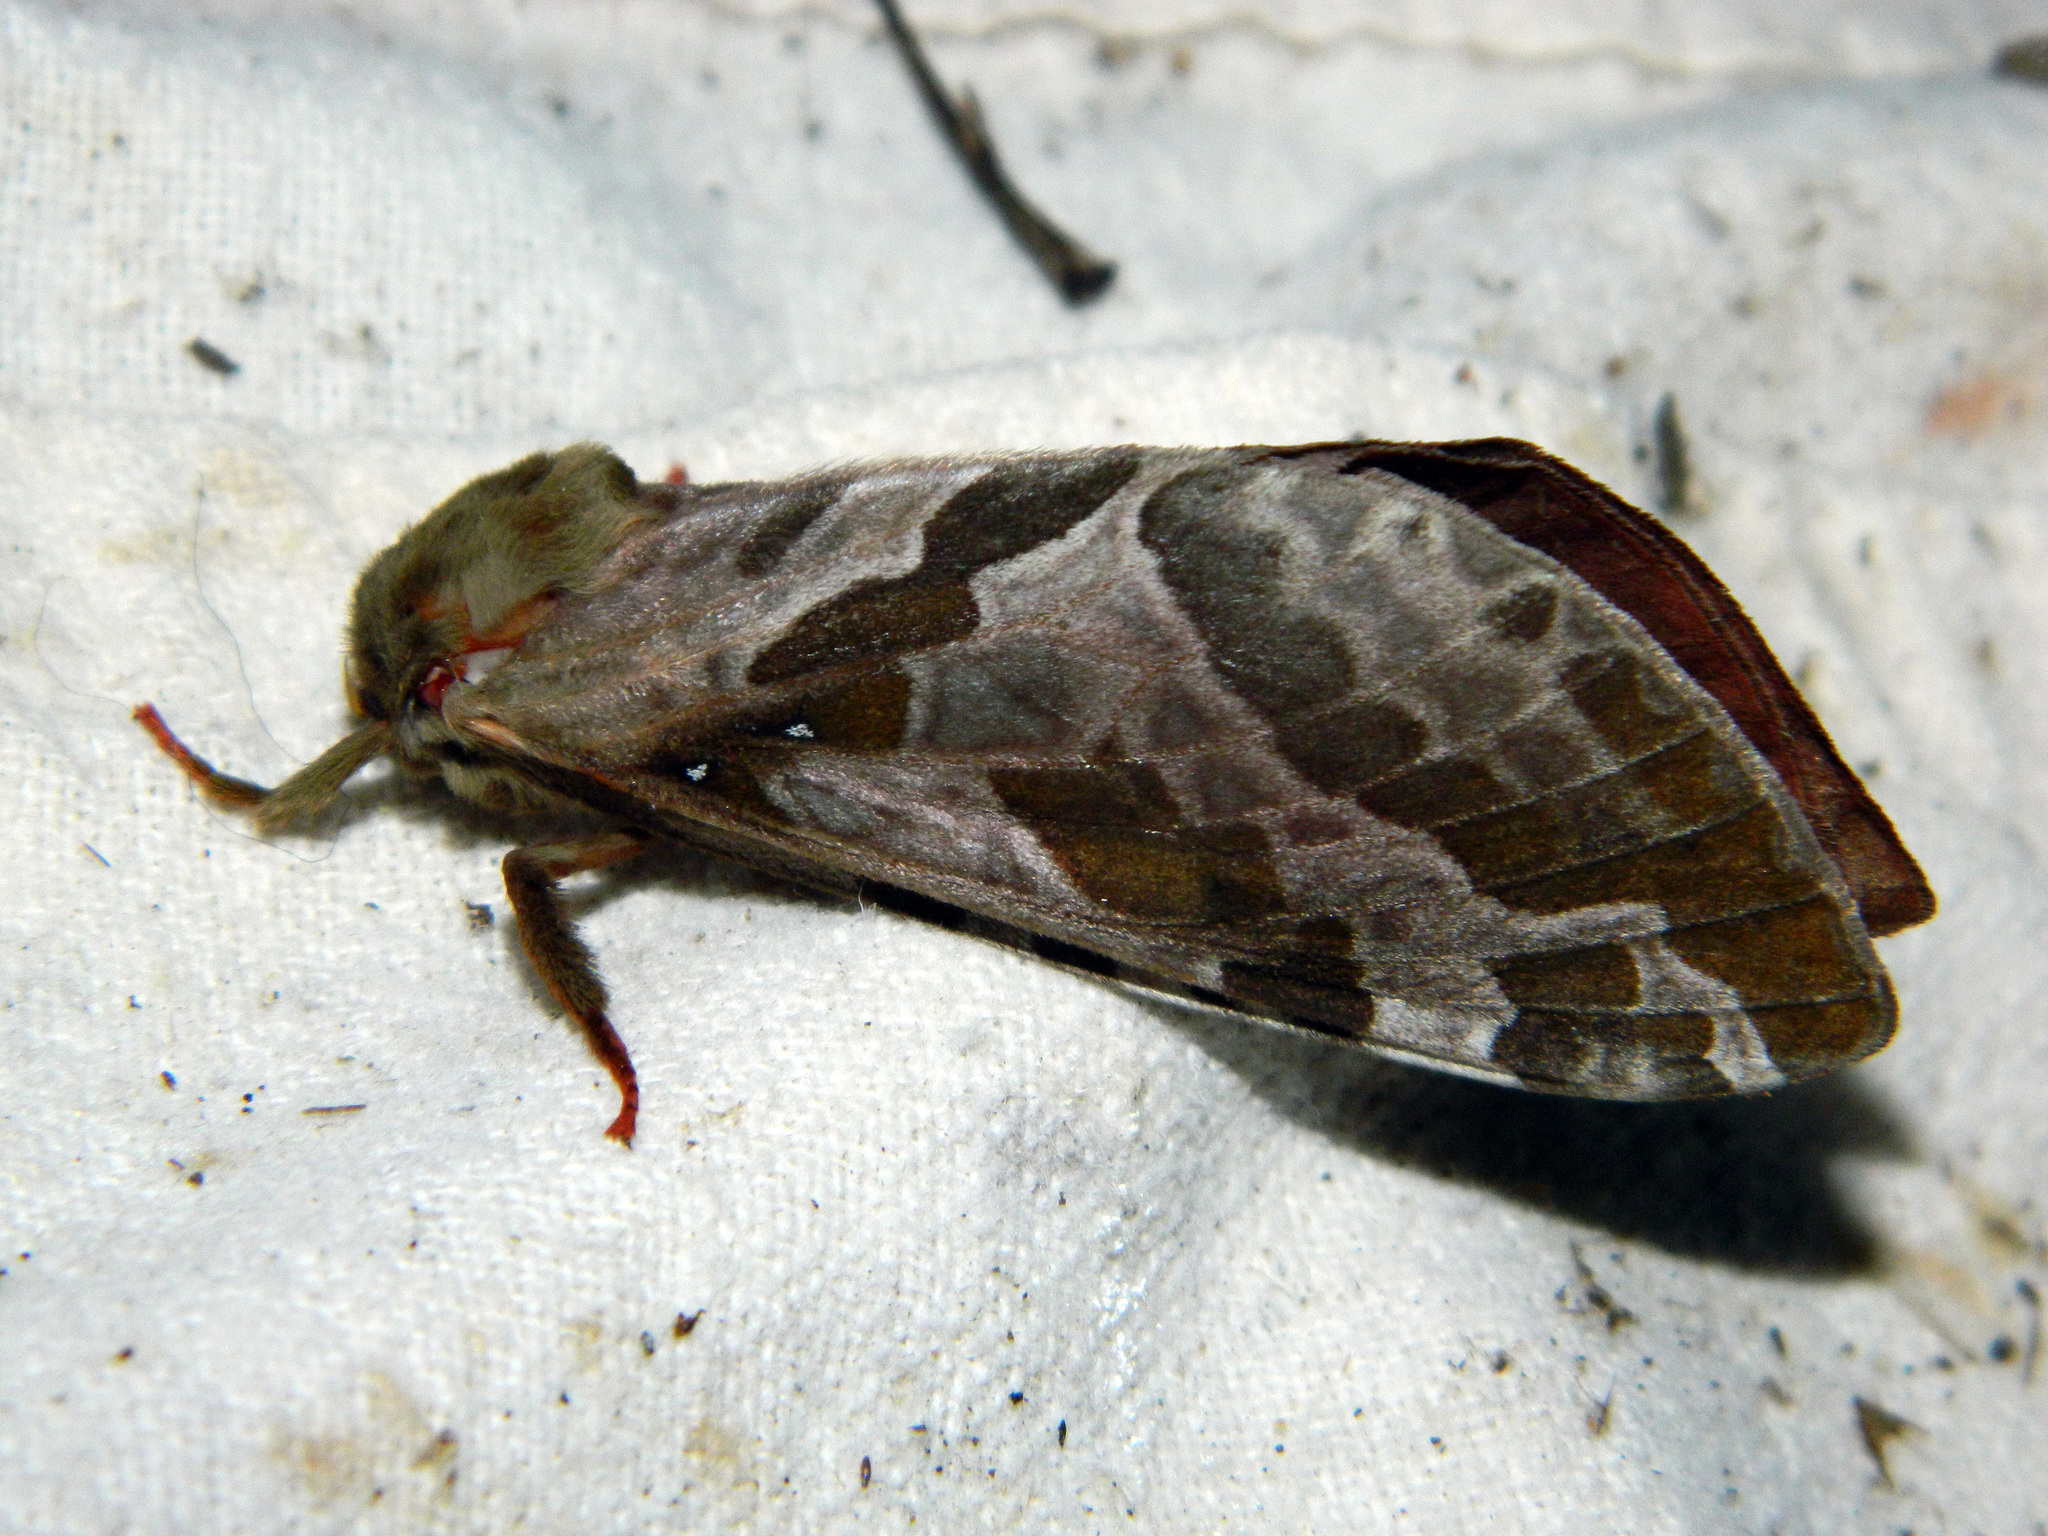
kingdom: Animalia
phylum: Arthropoda
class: Insecta
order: Lepidoptera
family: Hepialidae
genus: Sthenopis
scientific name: Sthenopis purpurascens
